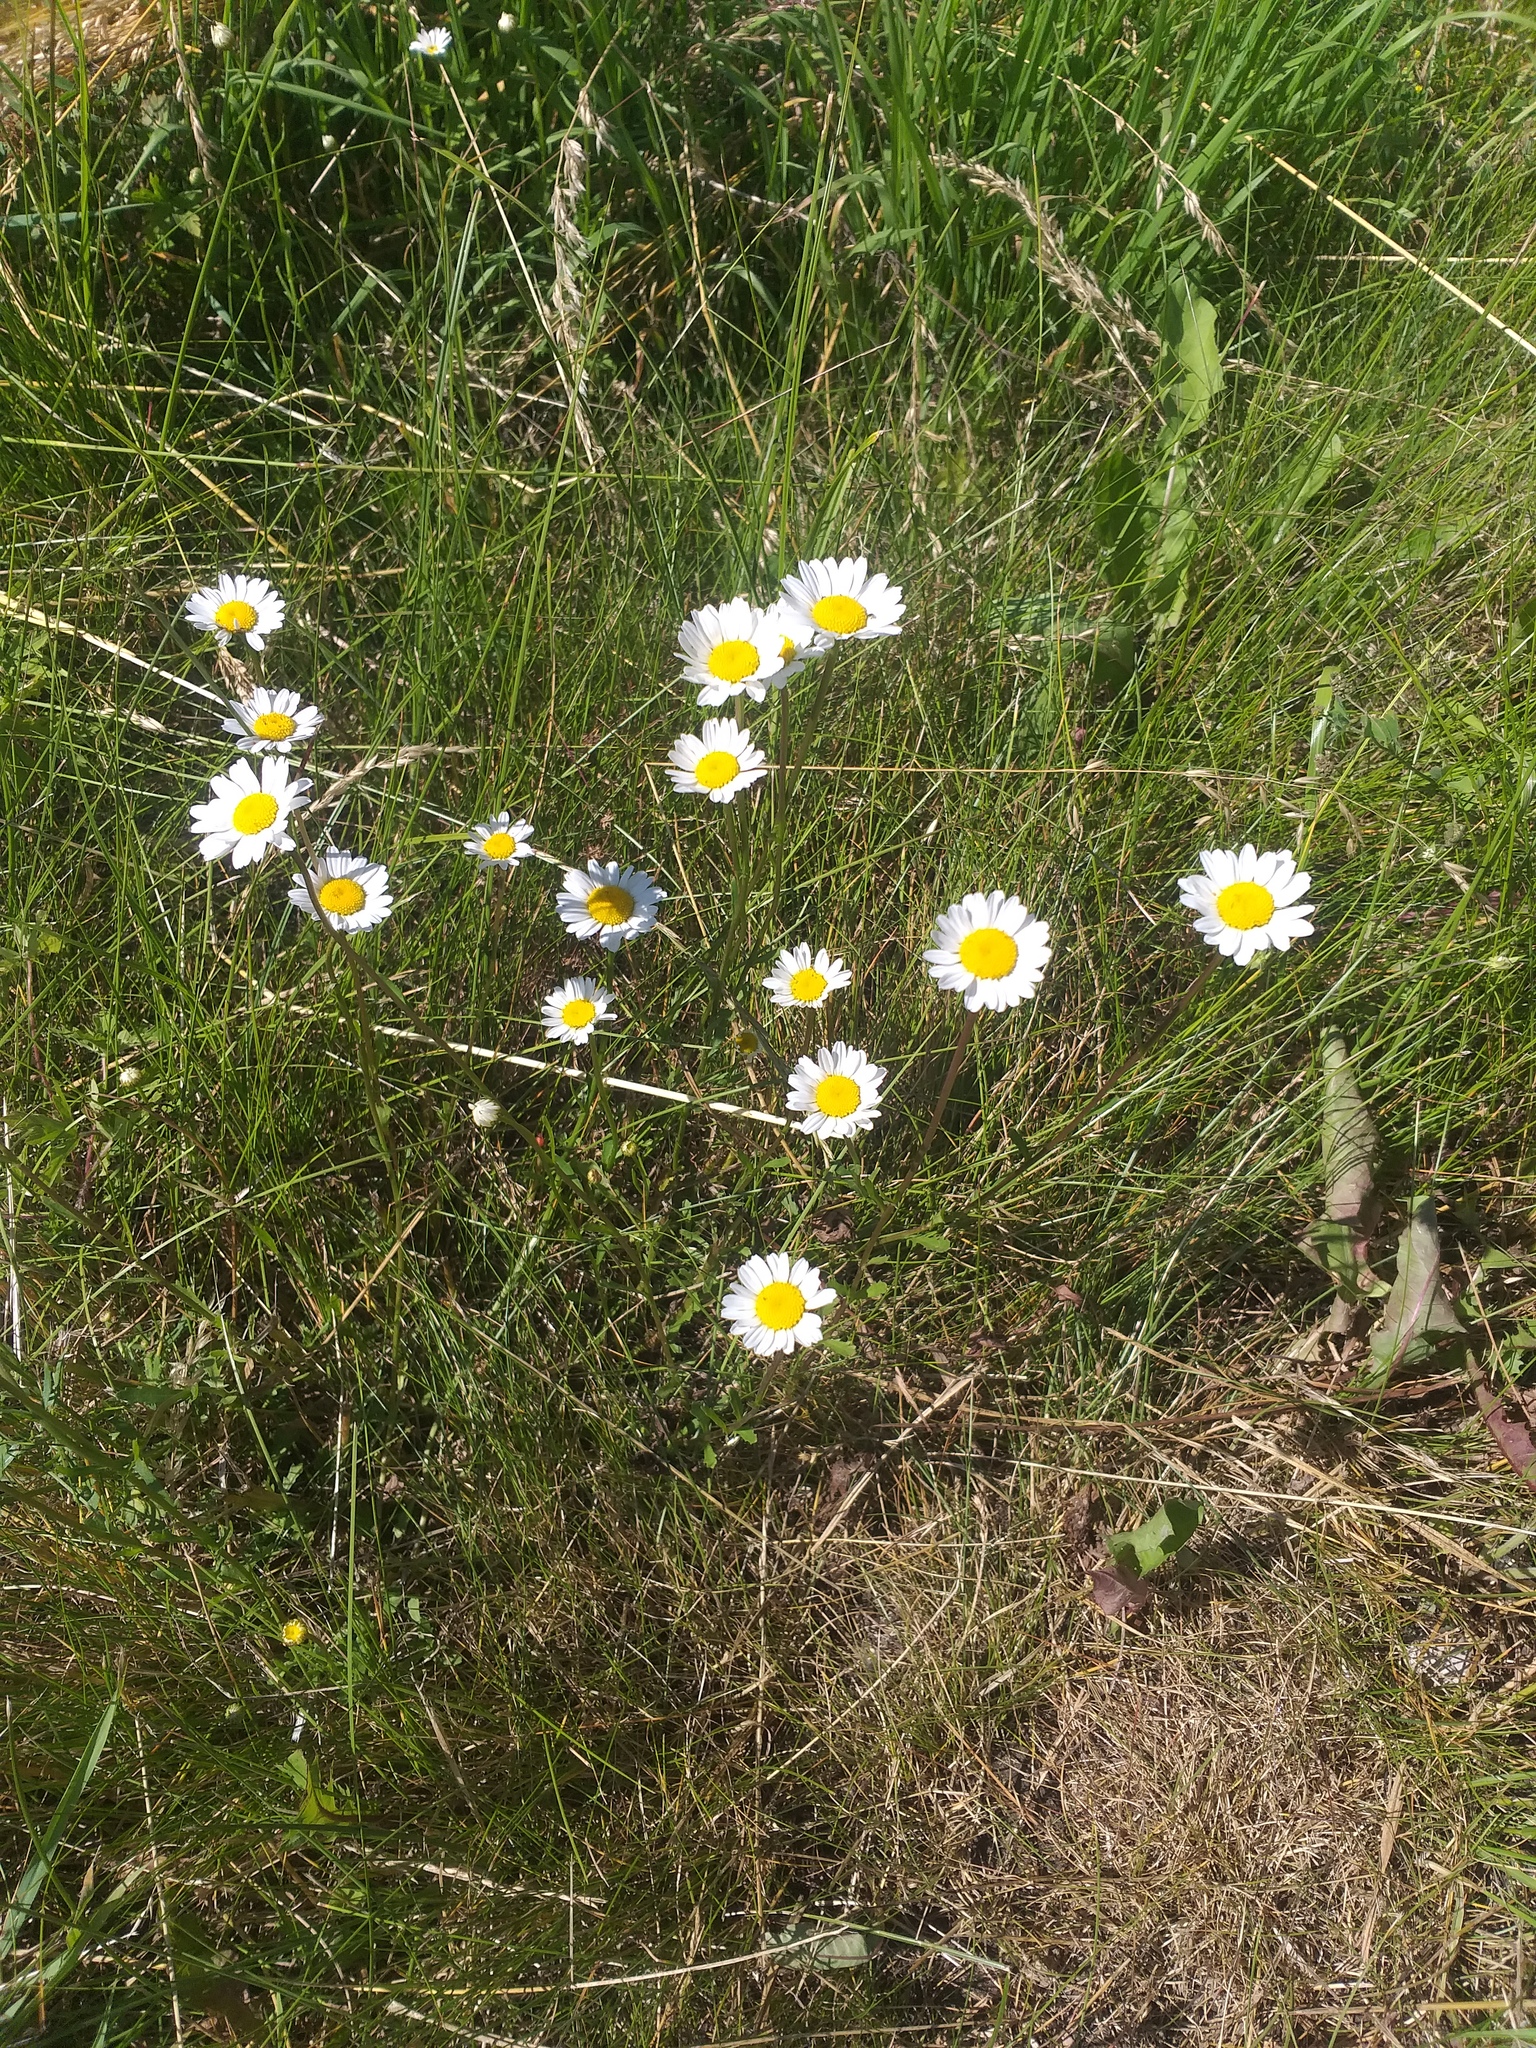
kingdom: Plantae
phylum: Tracheophyta
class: Magnoliopsida
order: Asterales
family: Asteraceae
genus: Leucanthemum
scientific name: Leucanthemum vulgare
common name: Oxeye daisy
